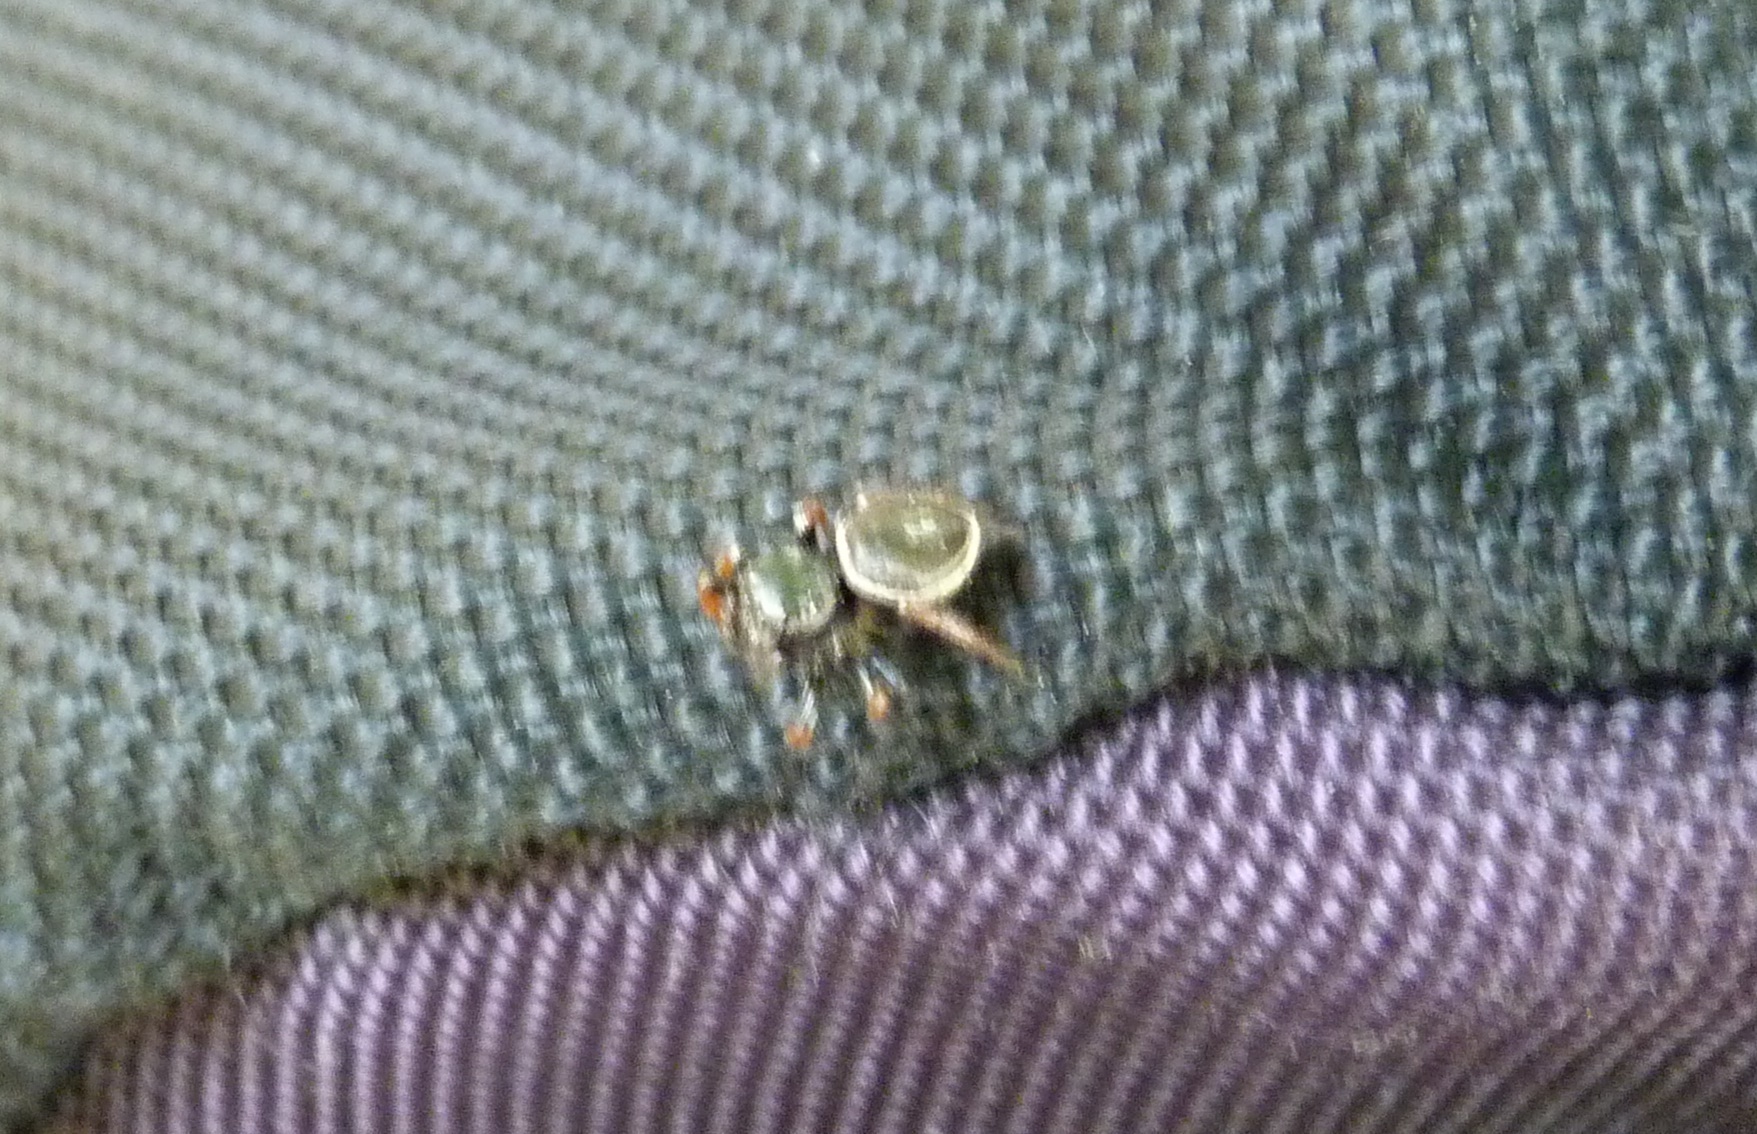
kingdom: Animalia
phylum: Arthropoda
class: Arachnida
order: Araneae
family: Salticidae
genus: Zenodorus
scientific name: Zenodorus orbiculatus
